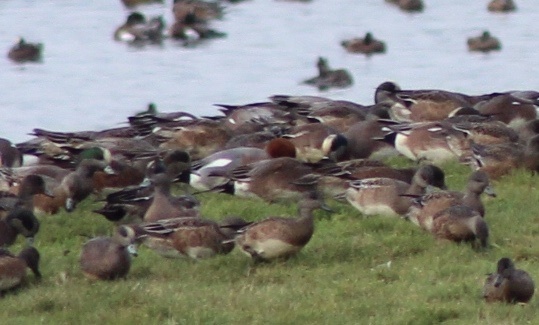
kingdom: Animalia
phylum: Chordata
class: Aves
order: Anseriformes
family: Anatidae
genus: Mareca
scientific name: Mareca penelope
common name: Eurasian wigeon
